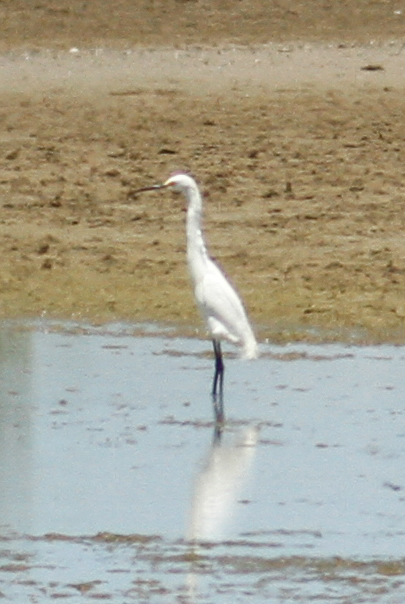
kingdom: Animalia
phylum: Chordata
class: Aves
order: Pelecaniformes
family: Ardeidae
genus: Egretta
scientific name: Egretta thula
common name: Snowy egret
